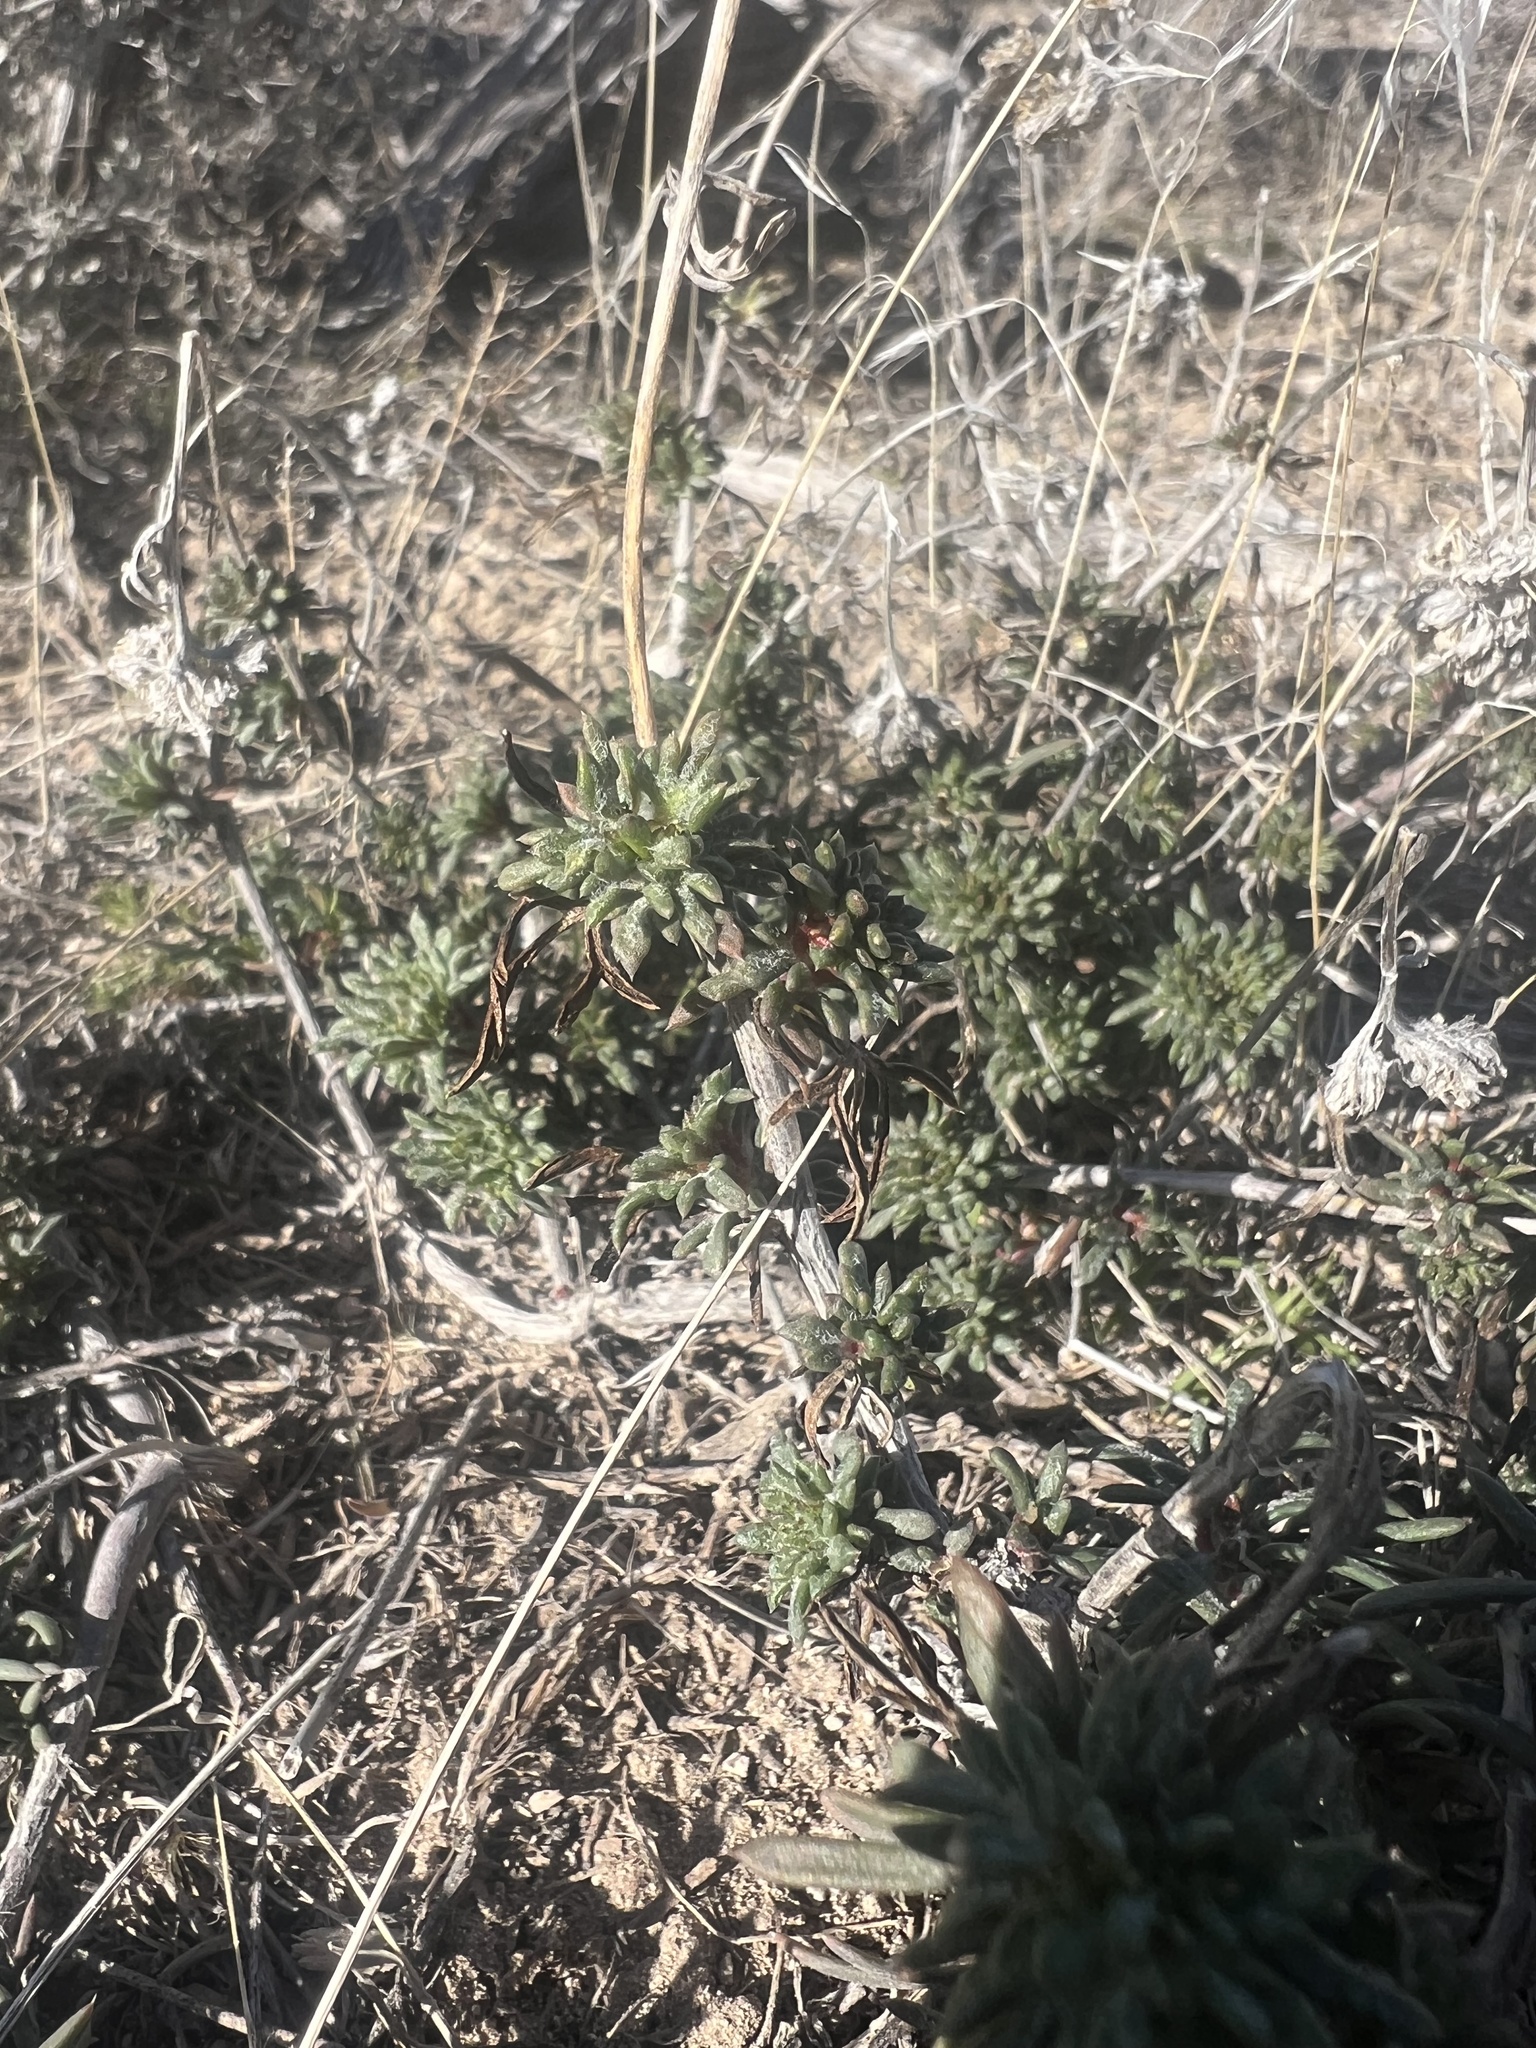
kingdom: Plantae
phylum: Tracheophyta
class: Magnoliopsida
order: Ericales
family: Polemoniaceae
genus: Ipomopsis
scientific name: Ipomopsis congesta
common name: Ball-head gilia
